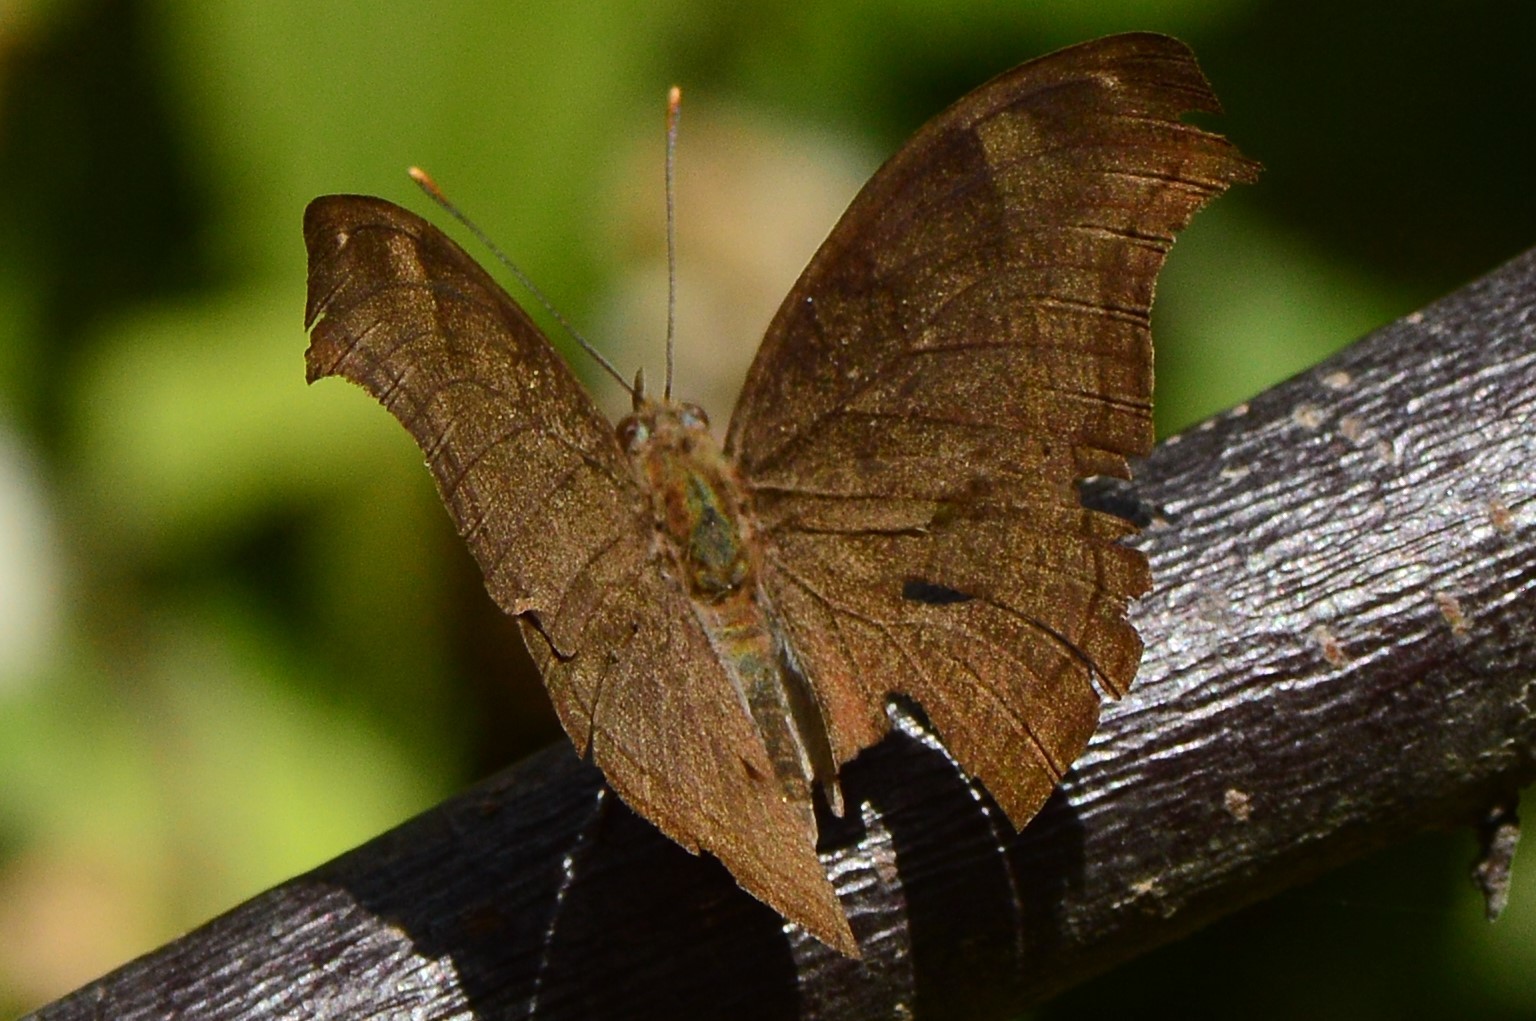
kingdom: Animalia
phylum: Arthropoda
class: Insecta
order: Lepidoptera
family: Nymphalidae
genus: Junonia
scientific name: Junonia iphita
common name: Chocolate pansy
